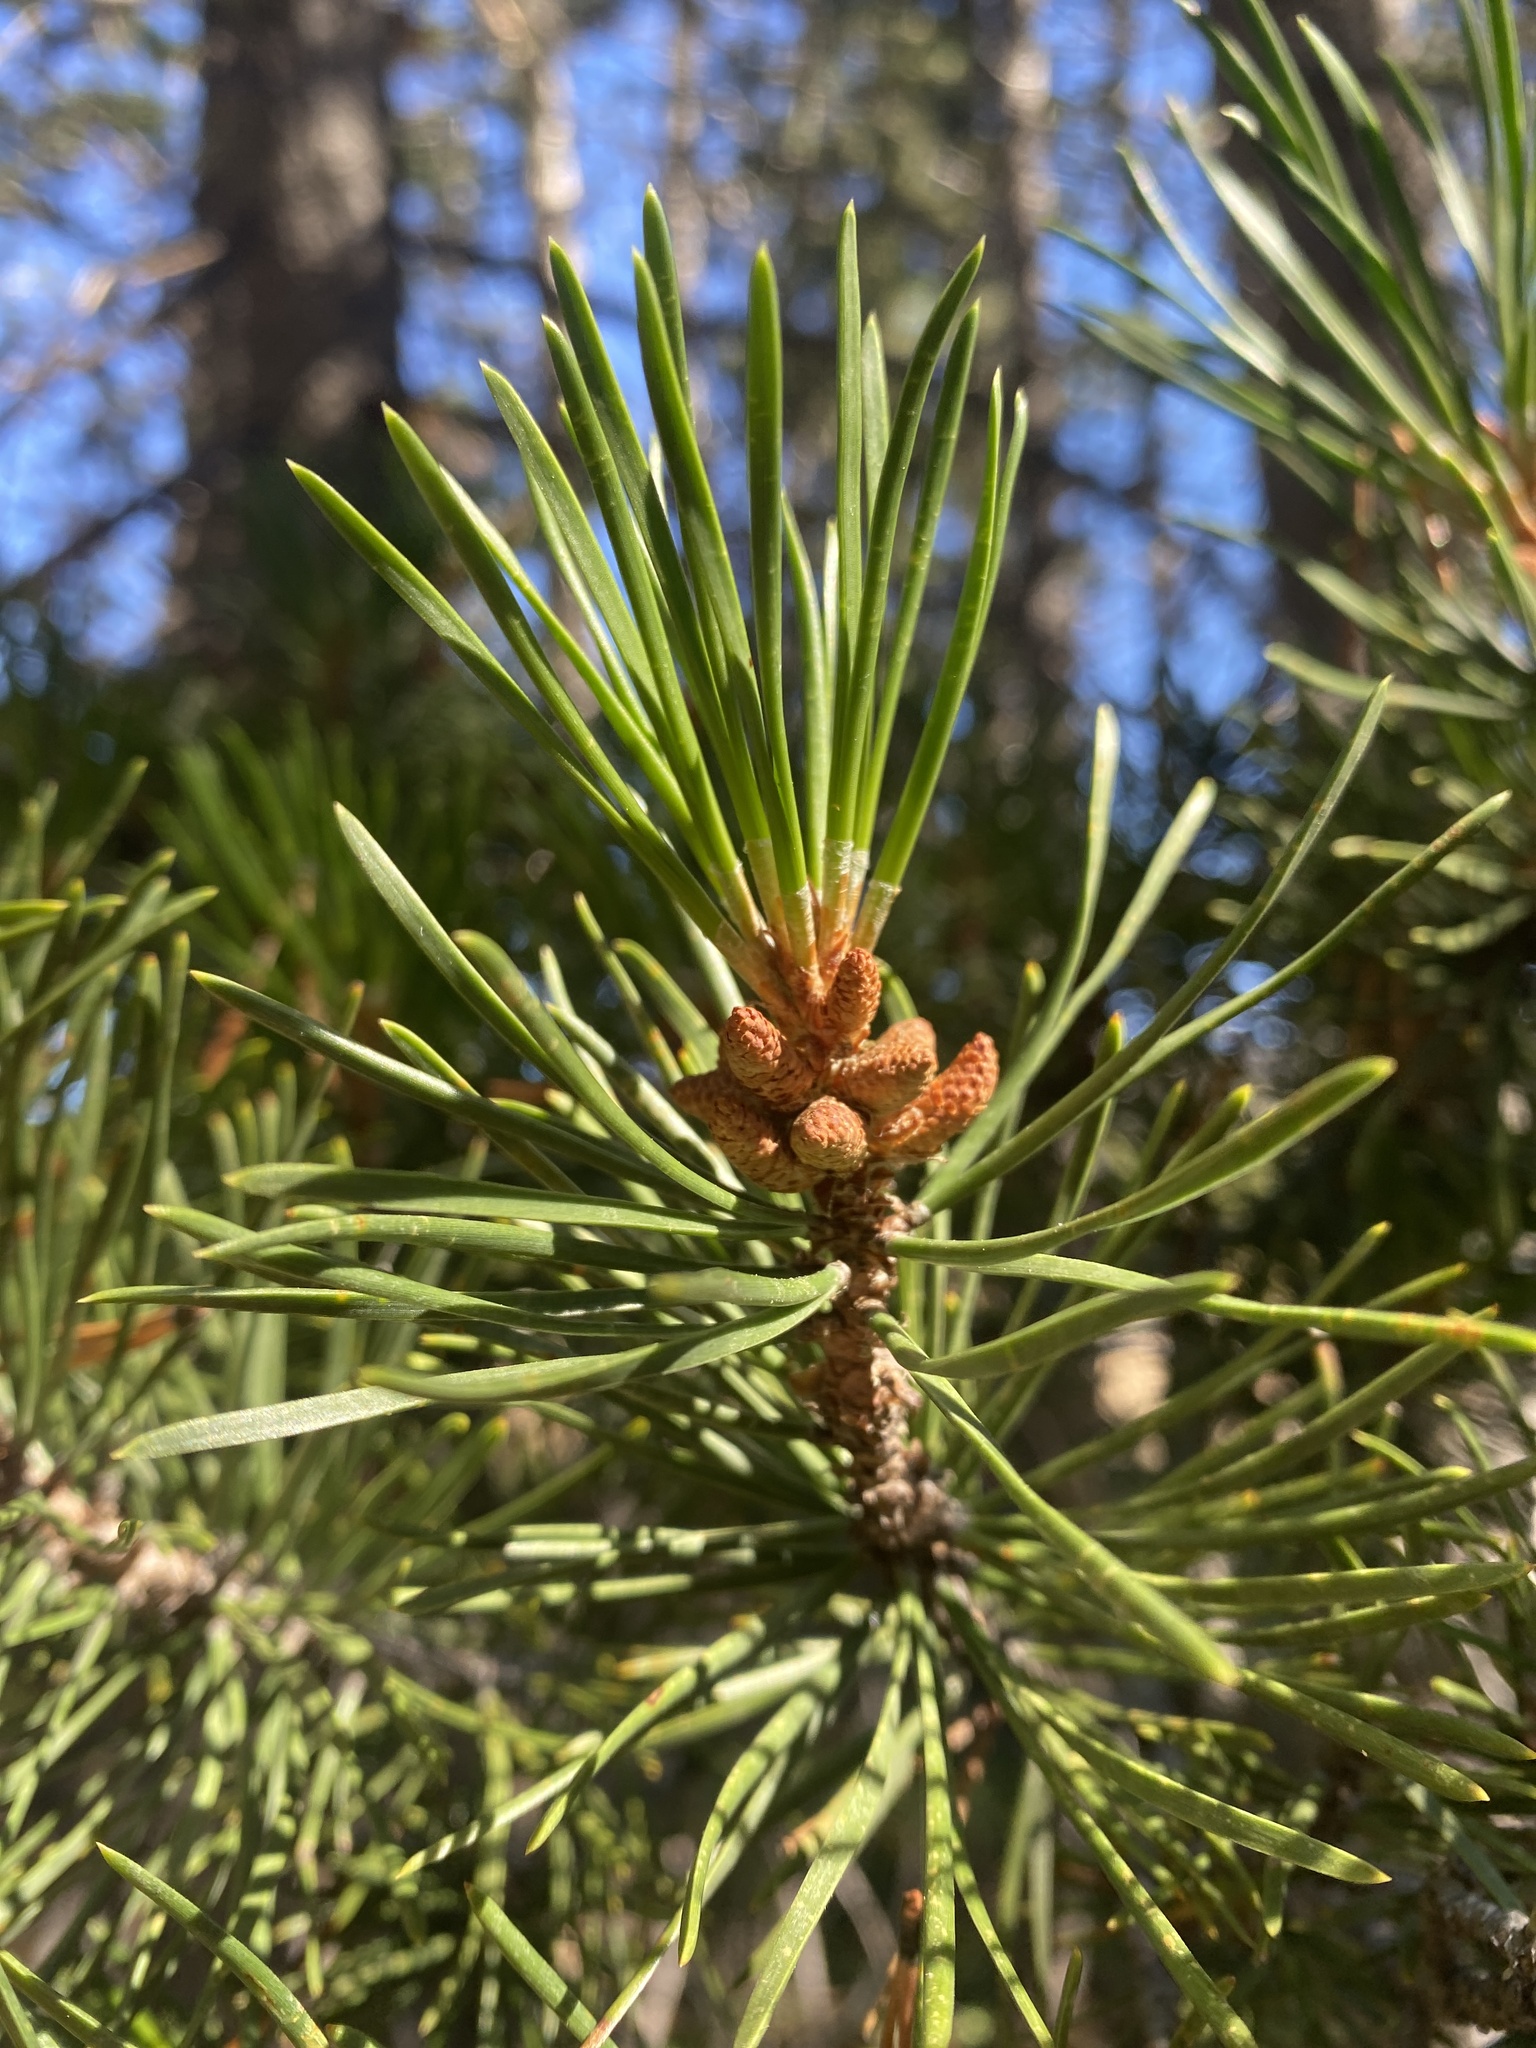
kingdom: Plantae
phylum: Tracheophyta
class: Pinopsida
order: Pinales
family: Pinaceae
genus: Pinus
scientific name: Pinus contorta
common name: Lodgepole pine
